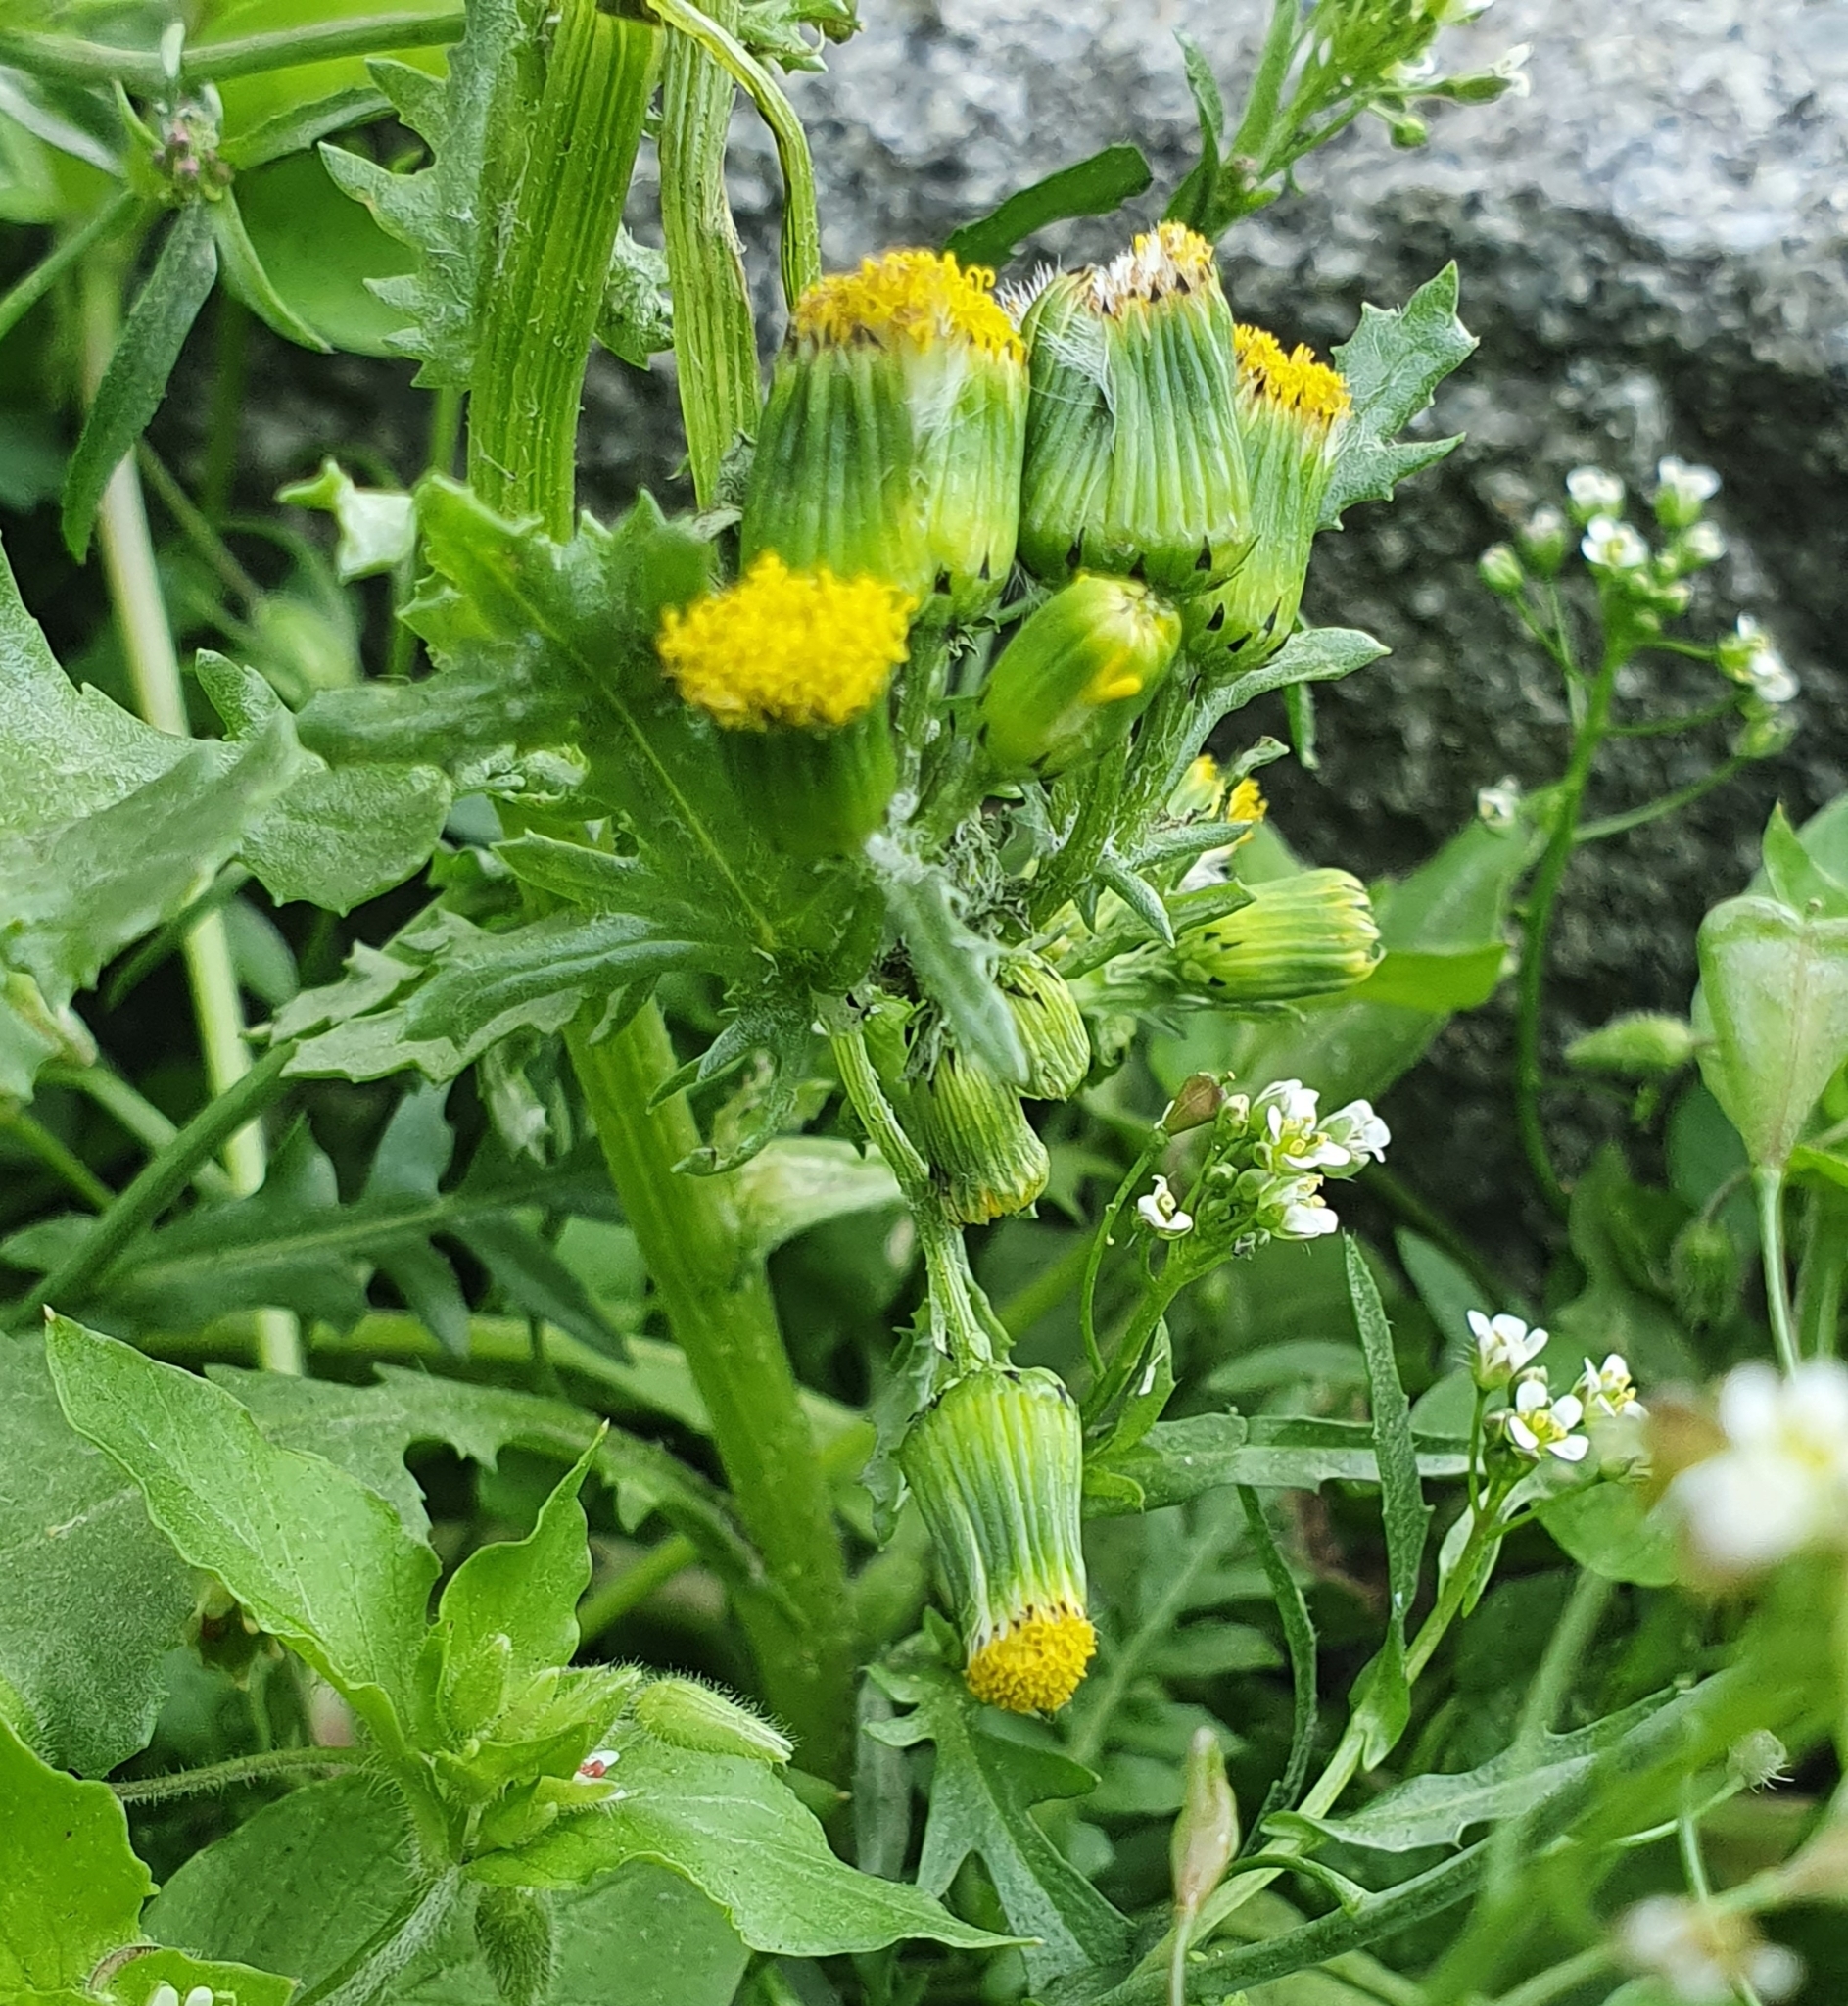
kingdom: Plantae
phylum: Tracheophyta
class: Magnoliopsida
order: Asterales
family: Asteraceae
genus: Senecio
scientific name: Senecio vulgaris
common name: Old-man-in-the-spring
